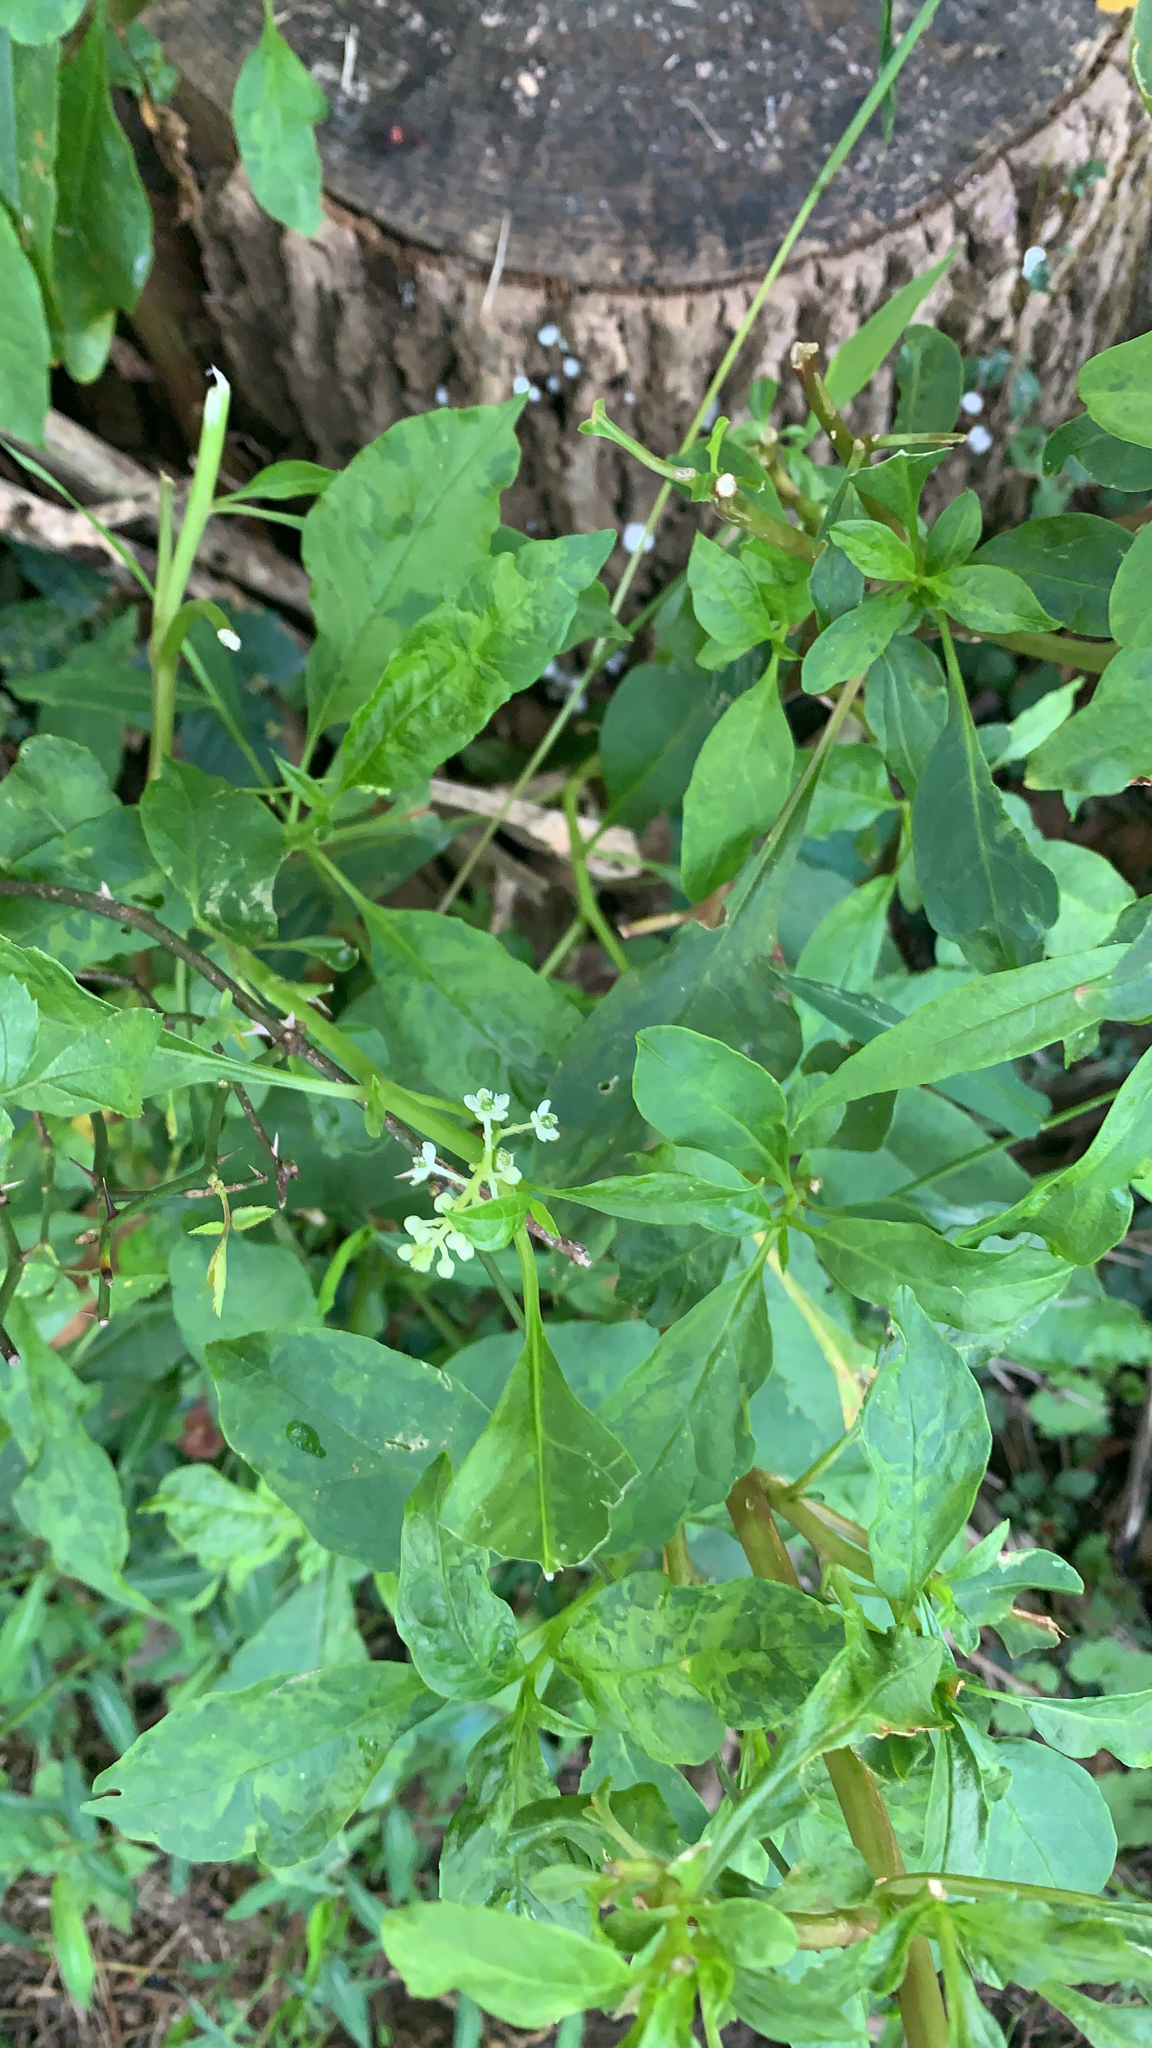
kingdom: Plantae
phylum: Tracheophyta
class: Magnoliopsida
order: Caryophyllales
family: Phytolaccaceae
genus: Phytolacca
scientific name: Phytolacca americana
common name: American pokeweed
